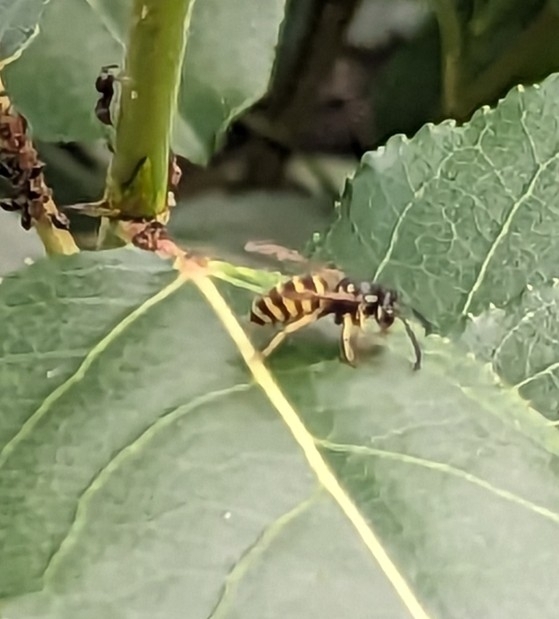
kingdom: Animalia
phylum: Arthropoda
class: Insecta
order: Hymenoptera
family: Vespidae
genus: Vespula
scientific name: Vespula alascensis
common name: Alaska yellowjacket
